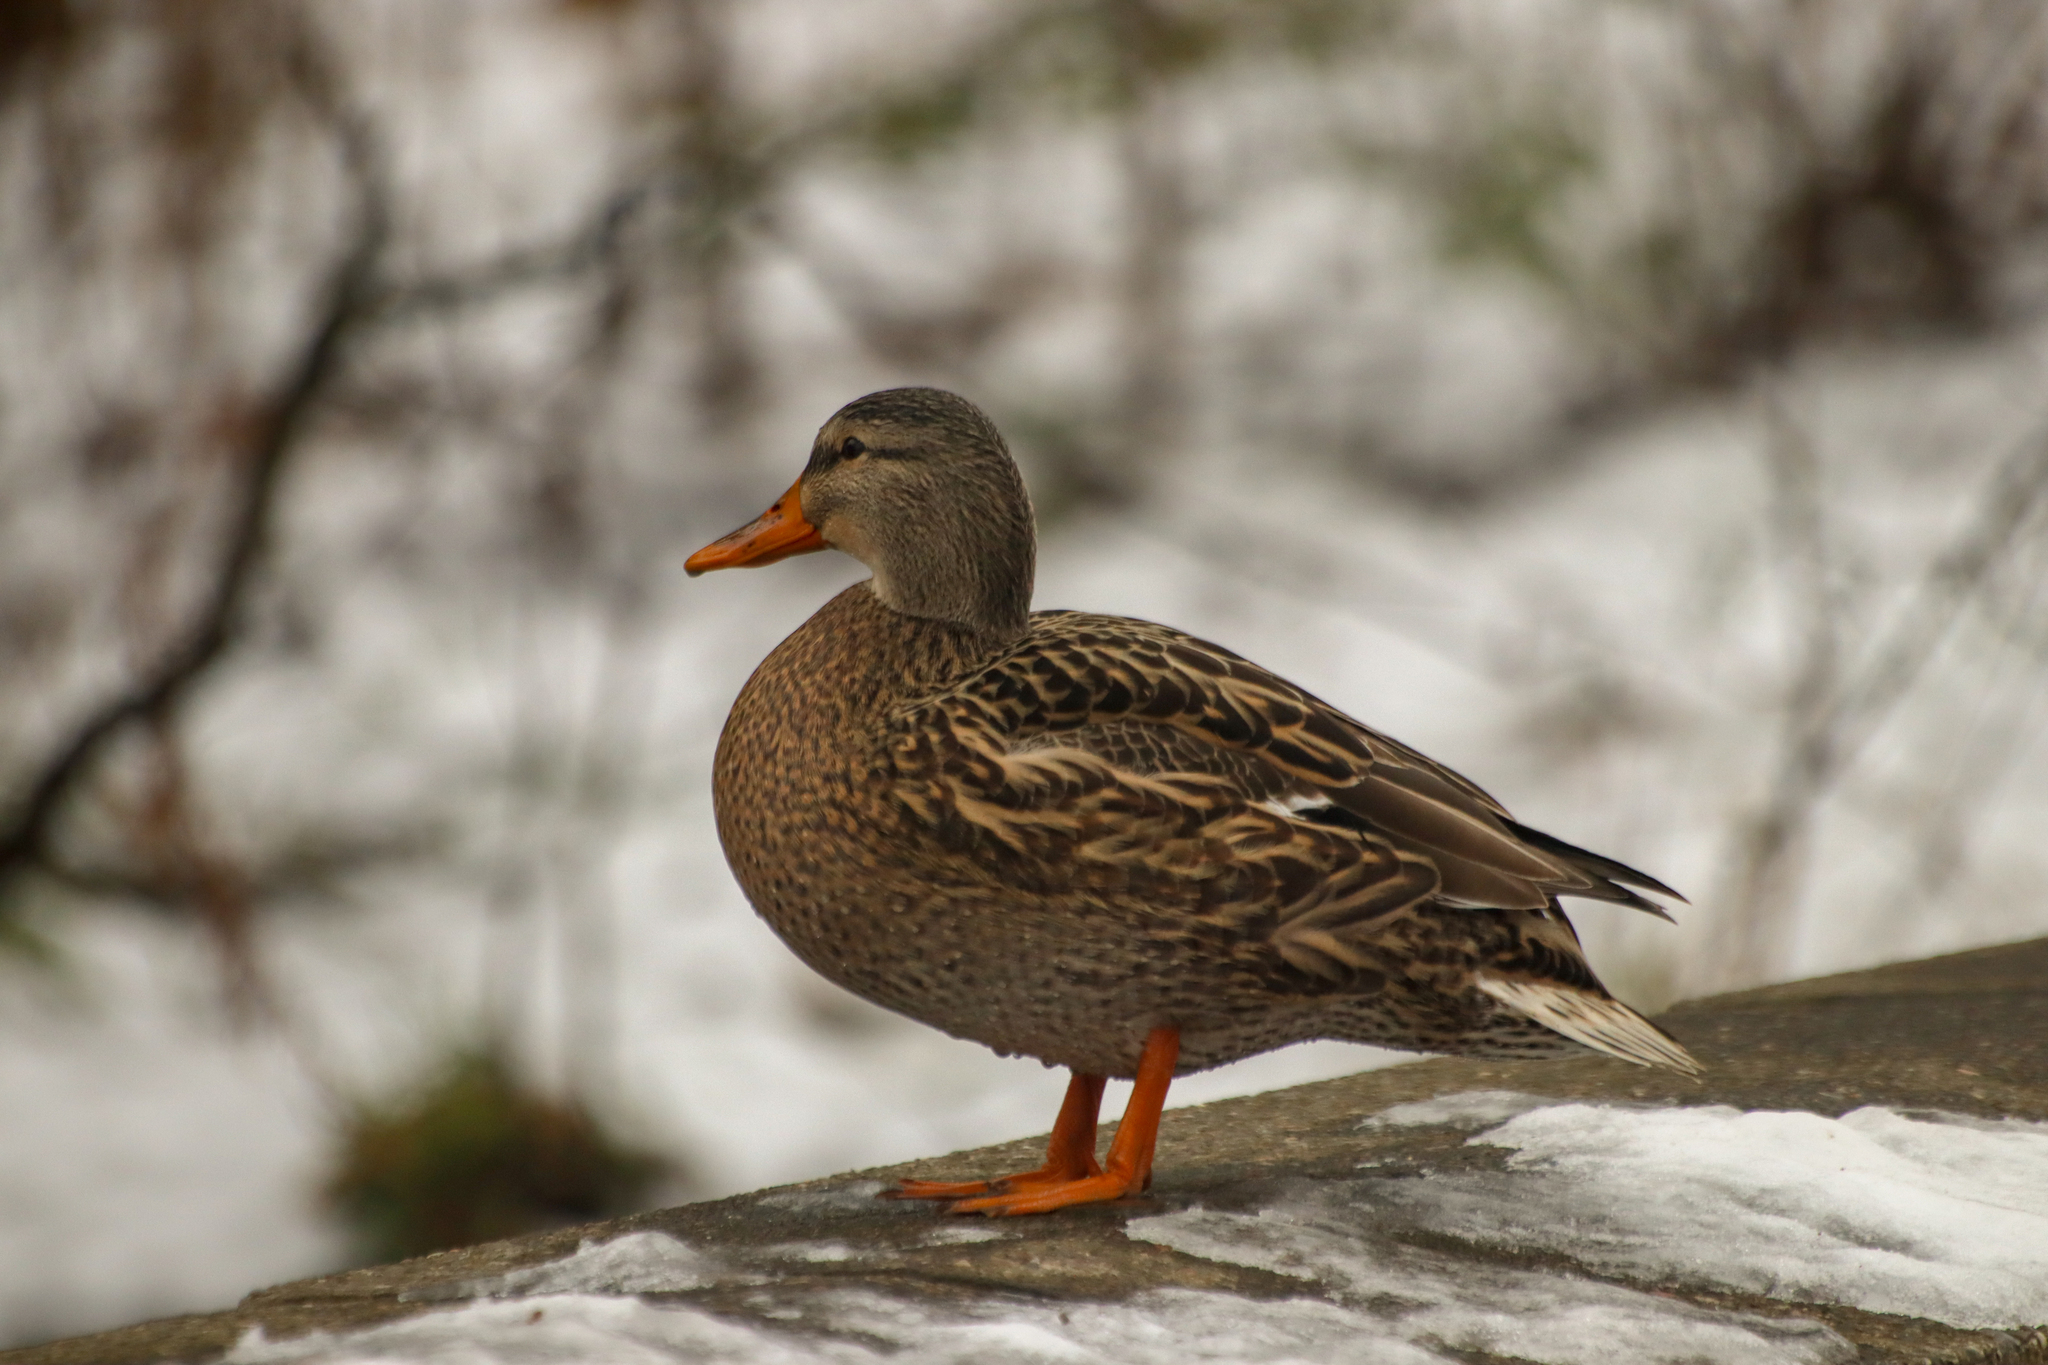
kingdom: Animalia
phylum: Chordata
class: Aves
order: Anseriformes
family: Anatidae
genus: Anas
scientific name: Anas platyrhynchos
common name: Mallard
